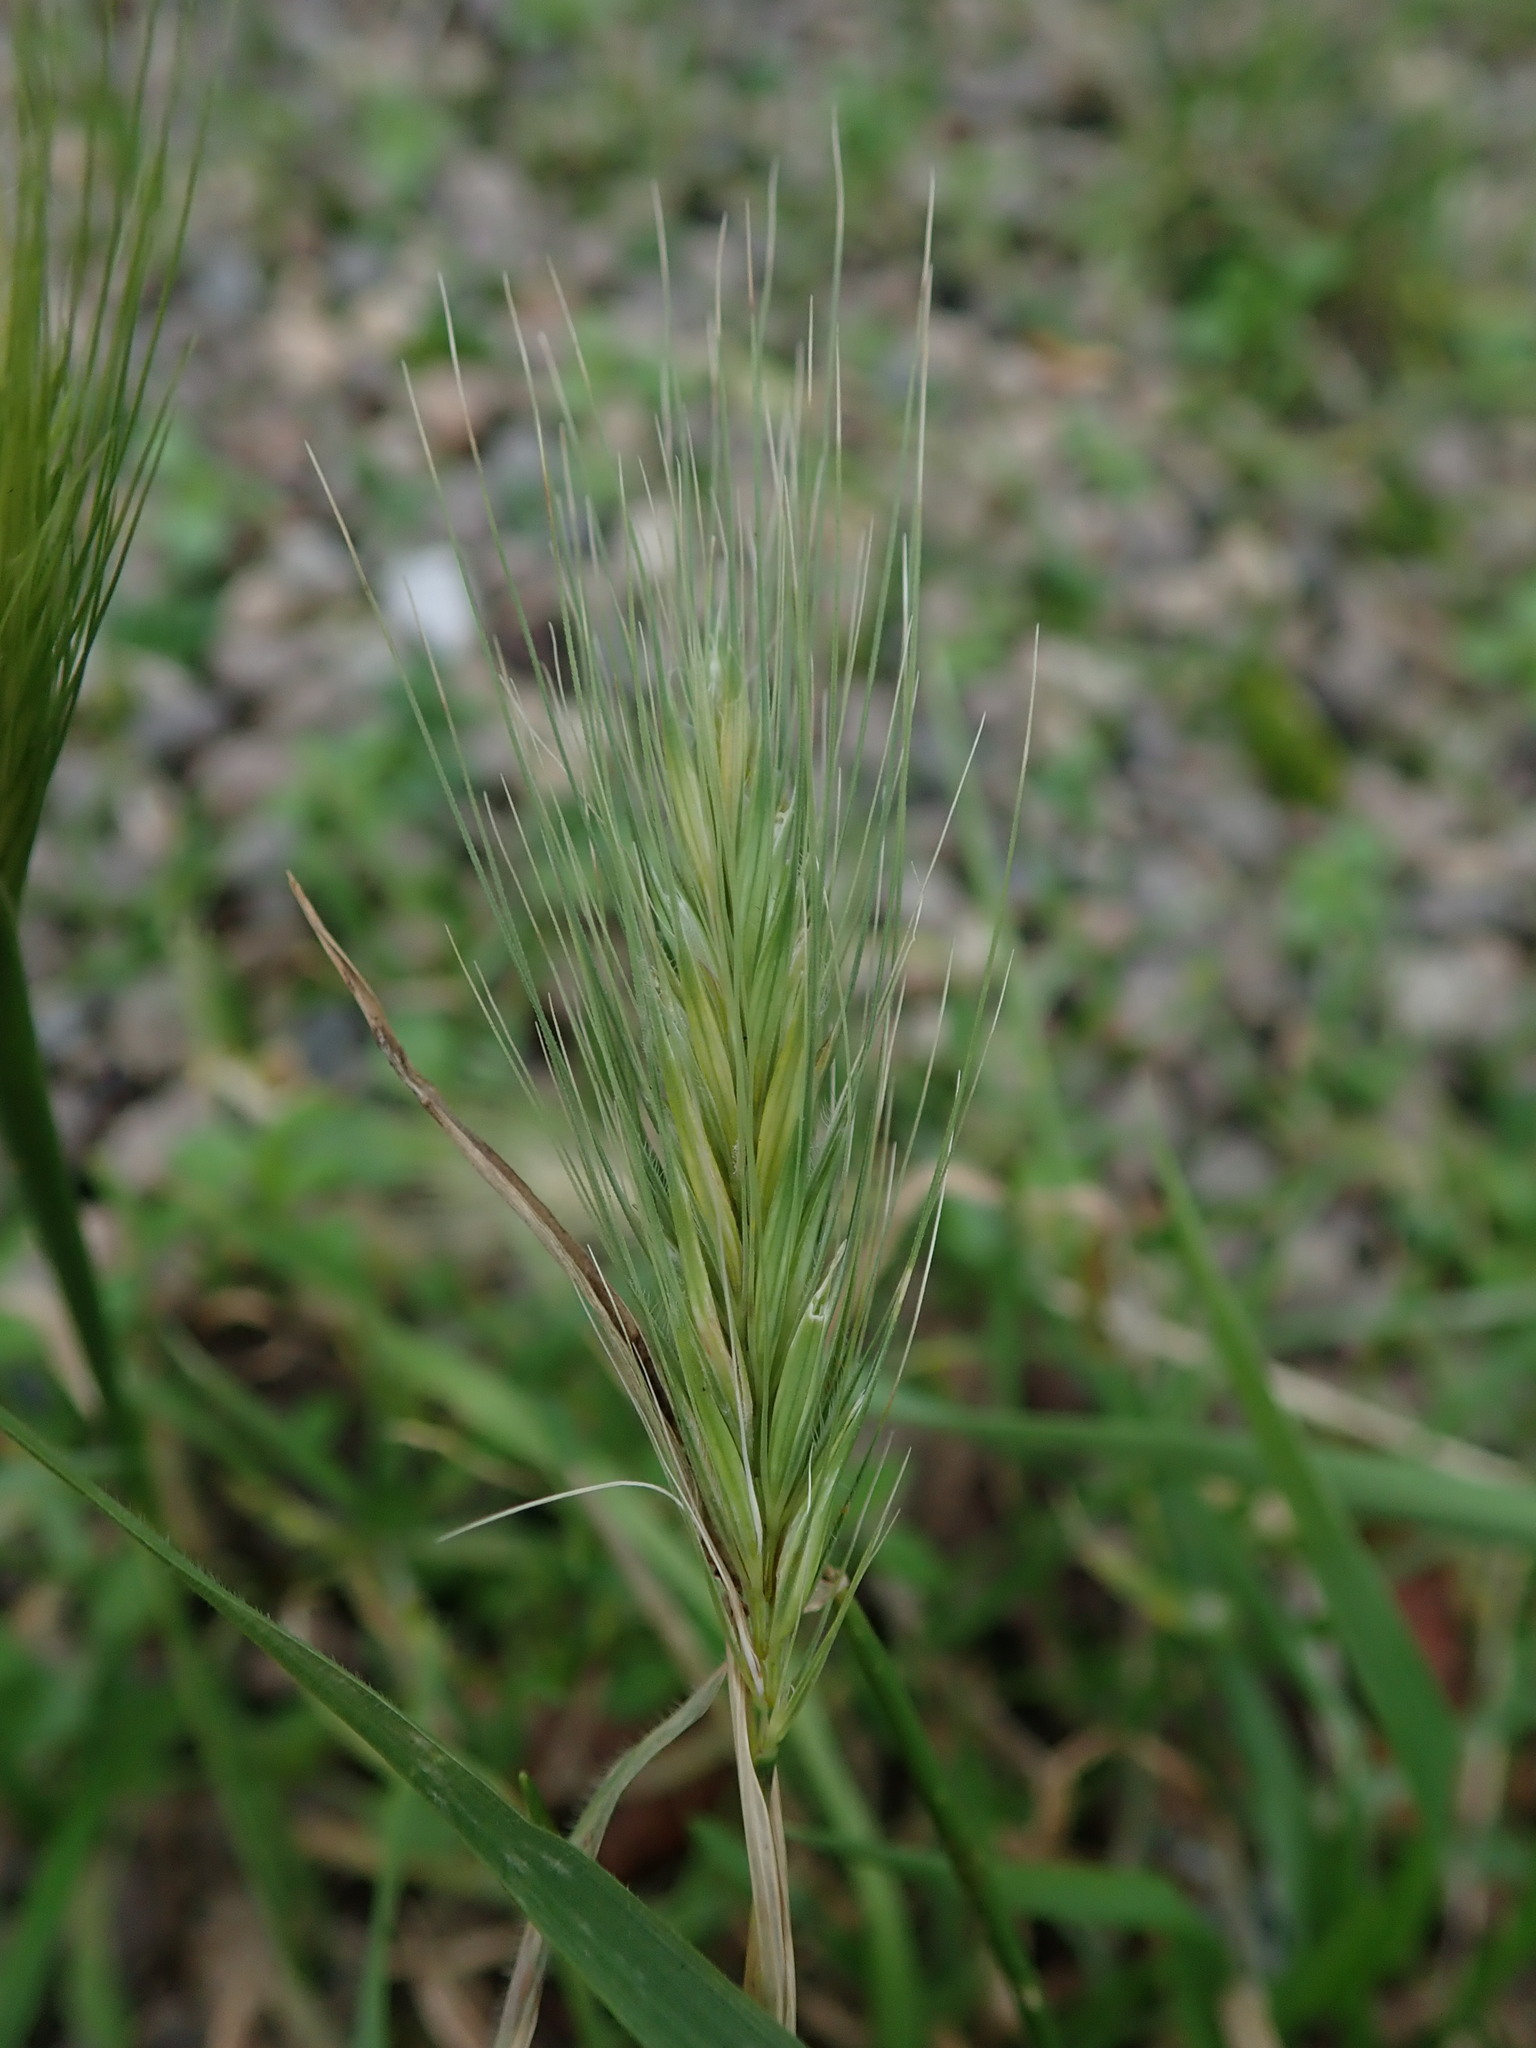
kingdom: Plantae
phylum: Tracheophyta
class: Liliopsida
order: Poales
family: Poaceae
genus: Hordeum
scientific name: Hordeum murinum
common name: Wall barley
